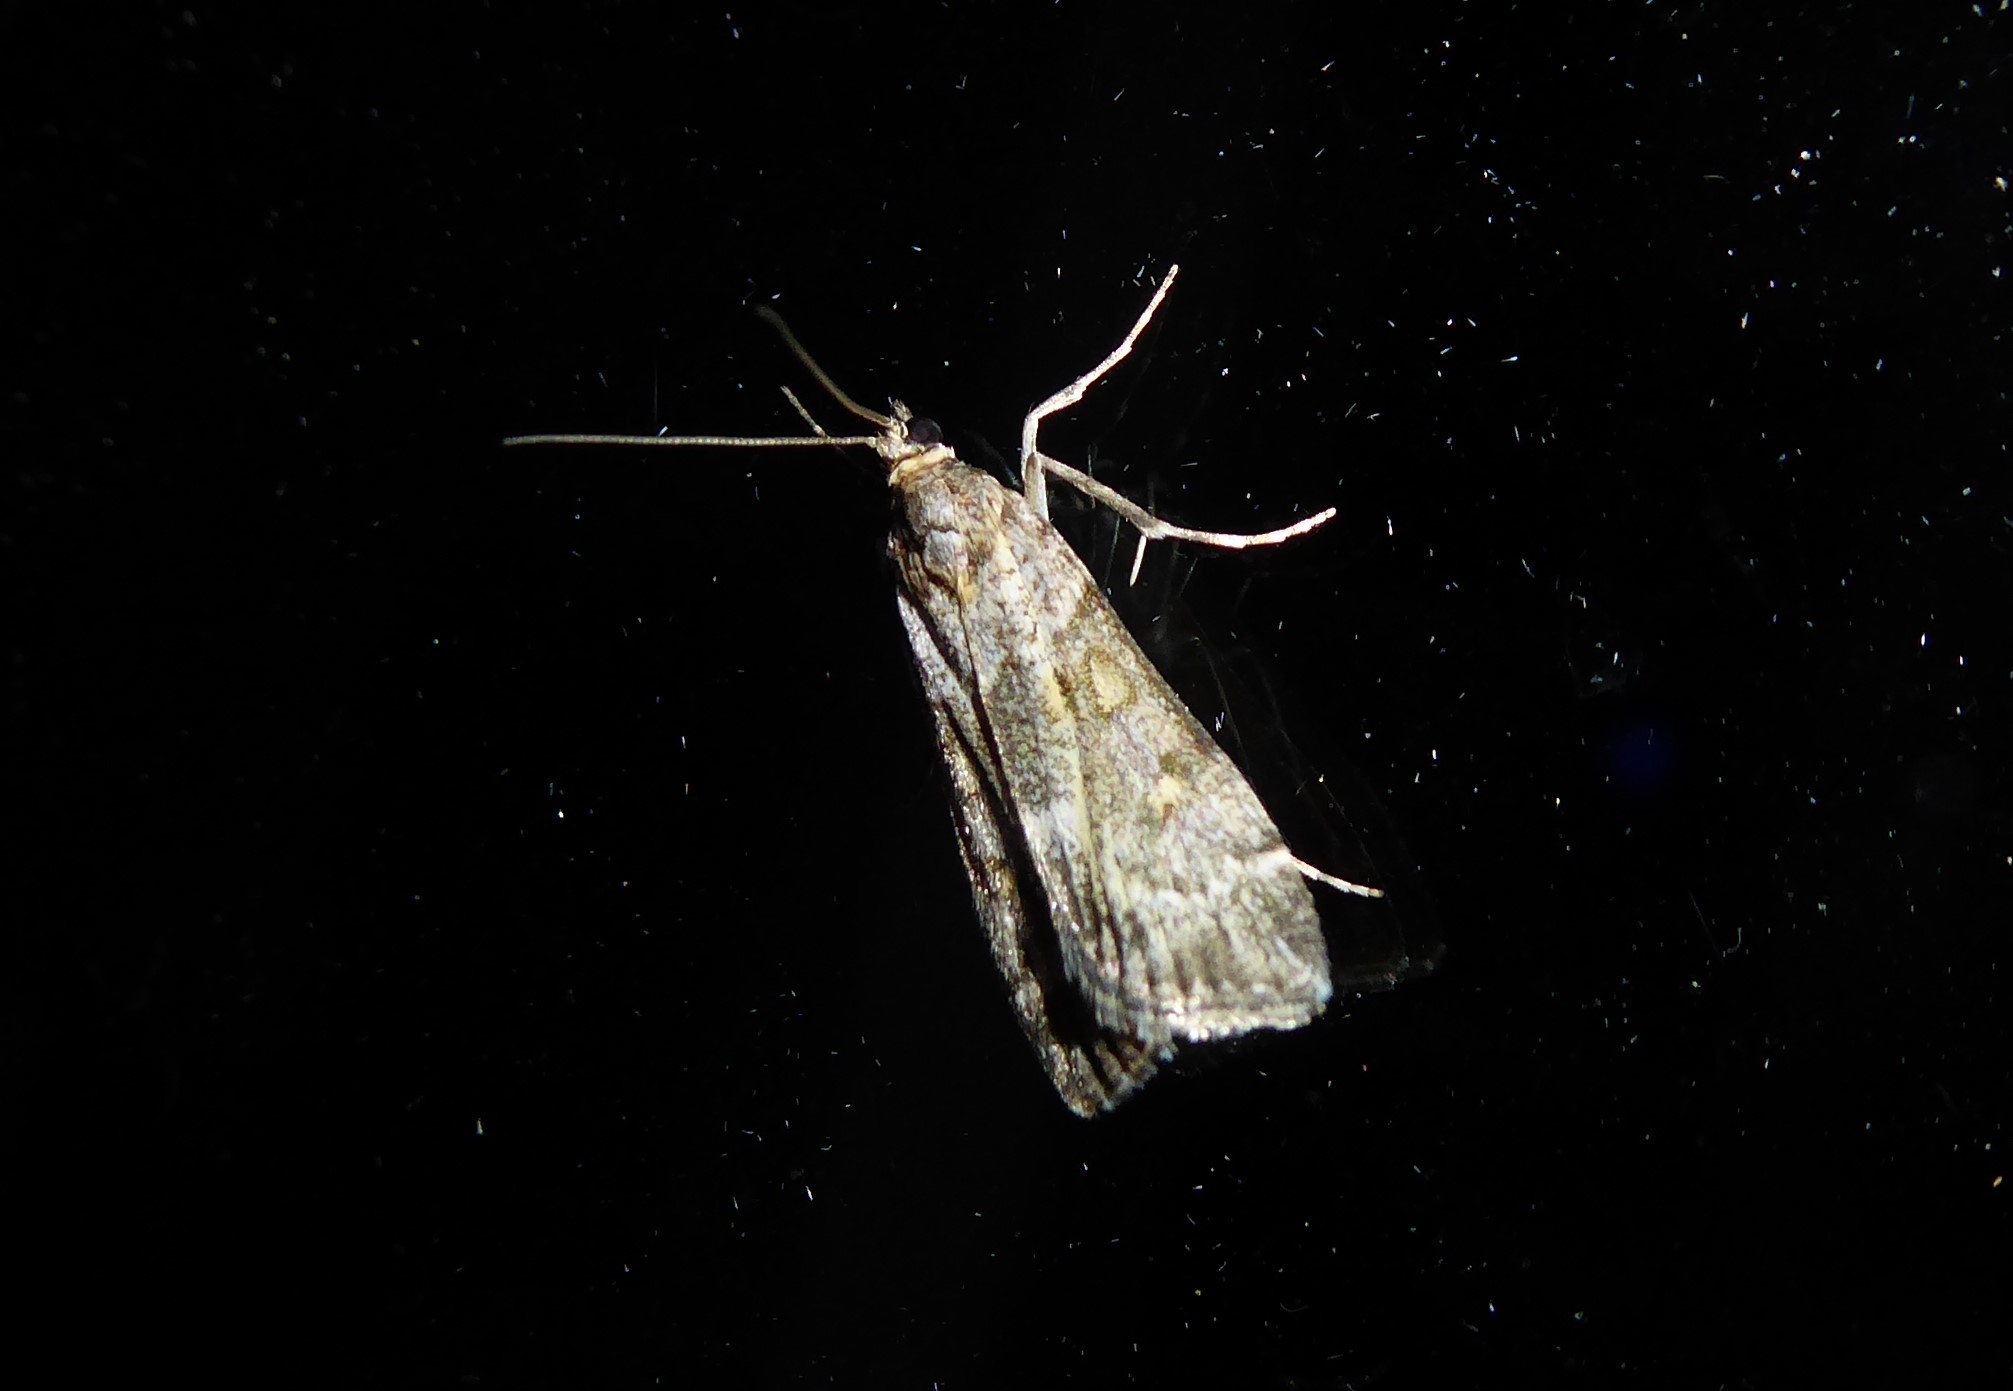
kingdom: Animalia
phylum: Arthropoda
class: Insecta
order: Lepidoptera
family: Crambidae
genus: Eudonia
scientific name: Eudonia diphtheralis
